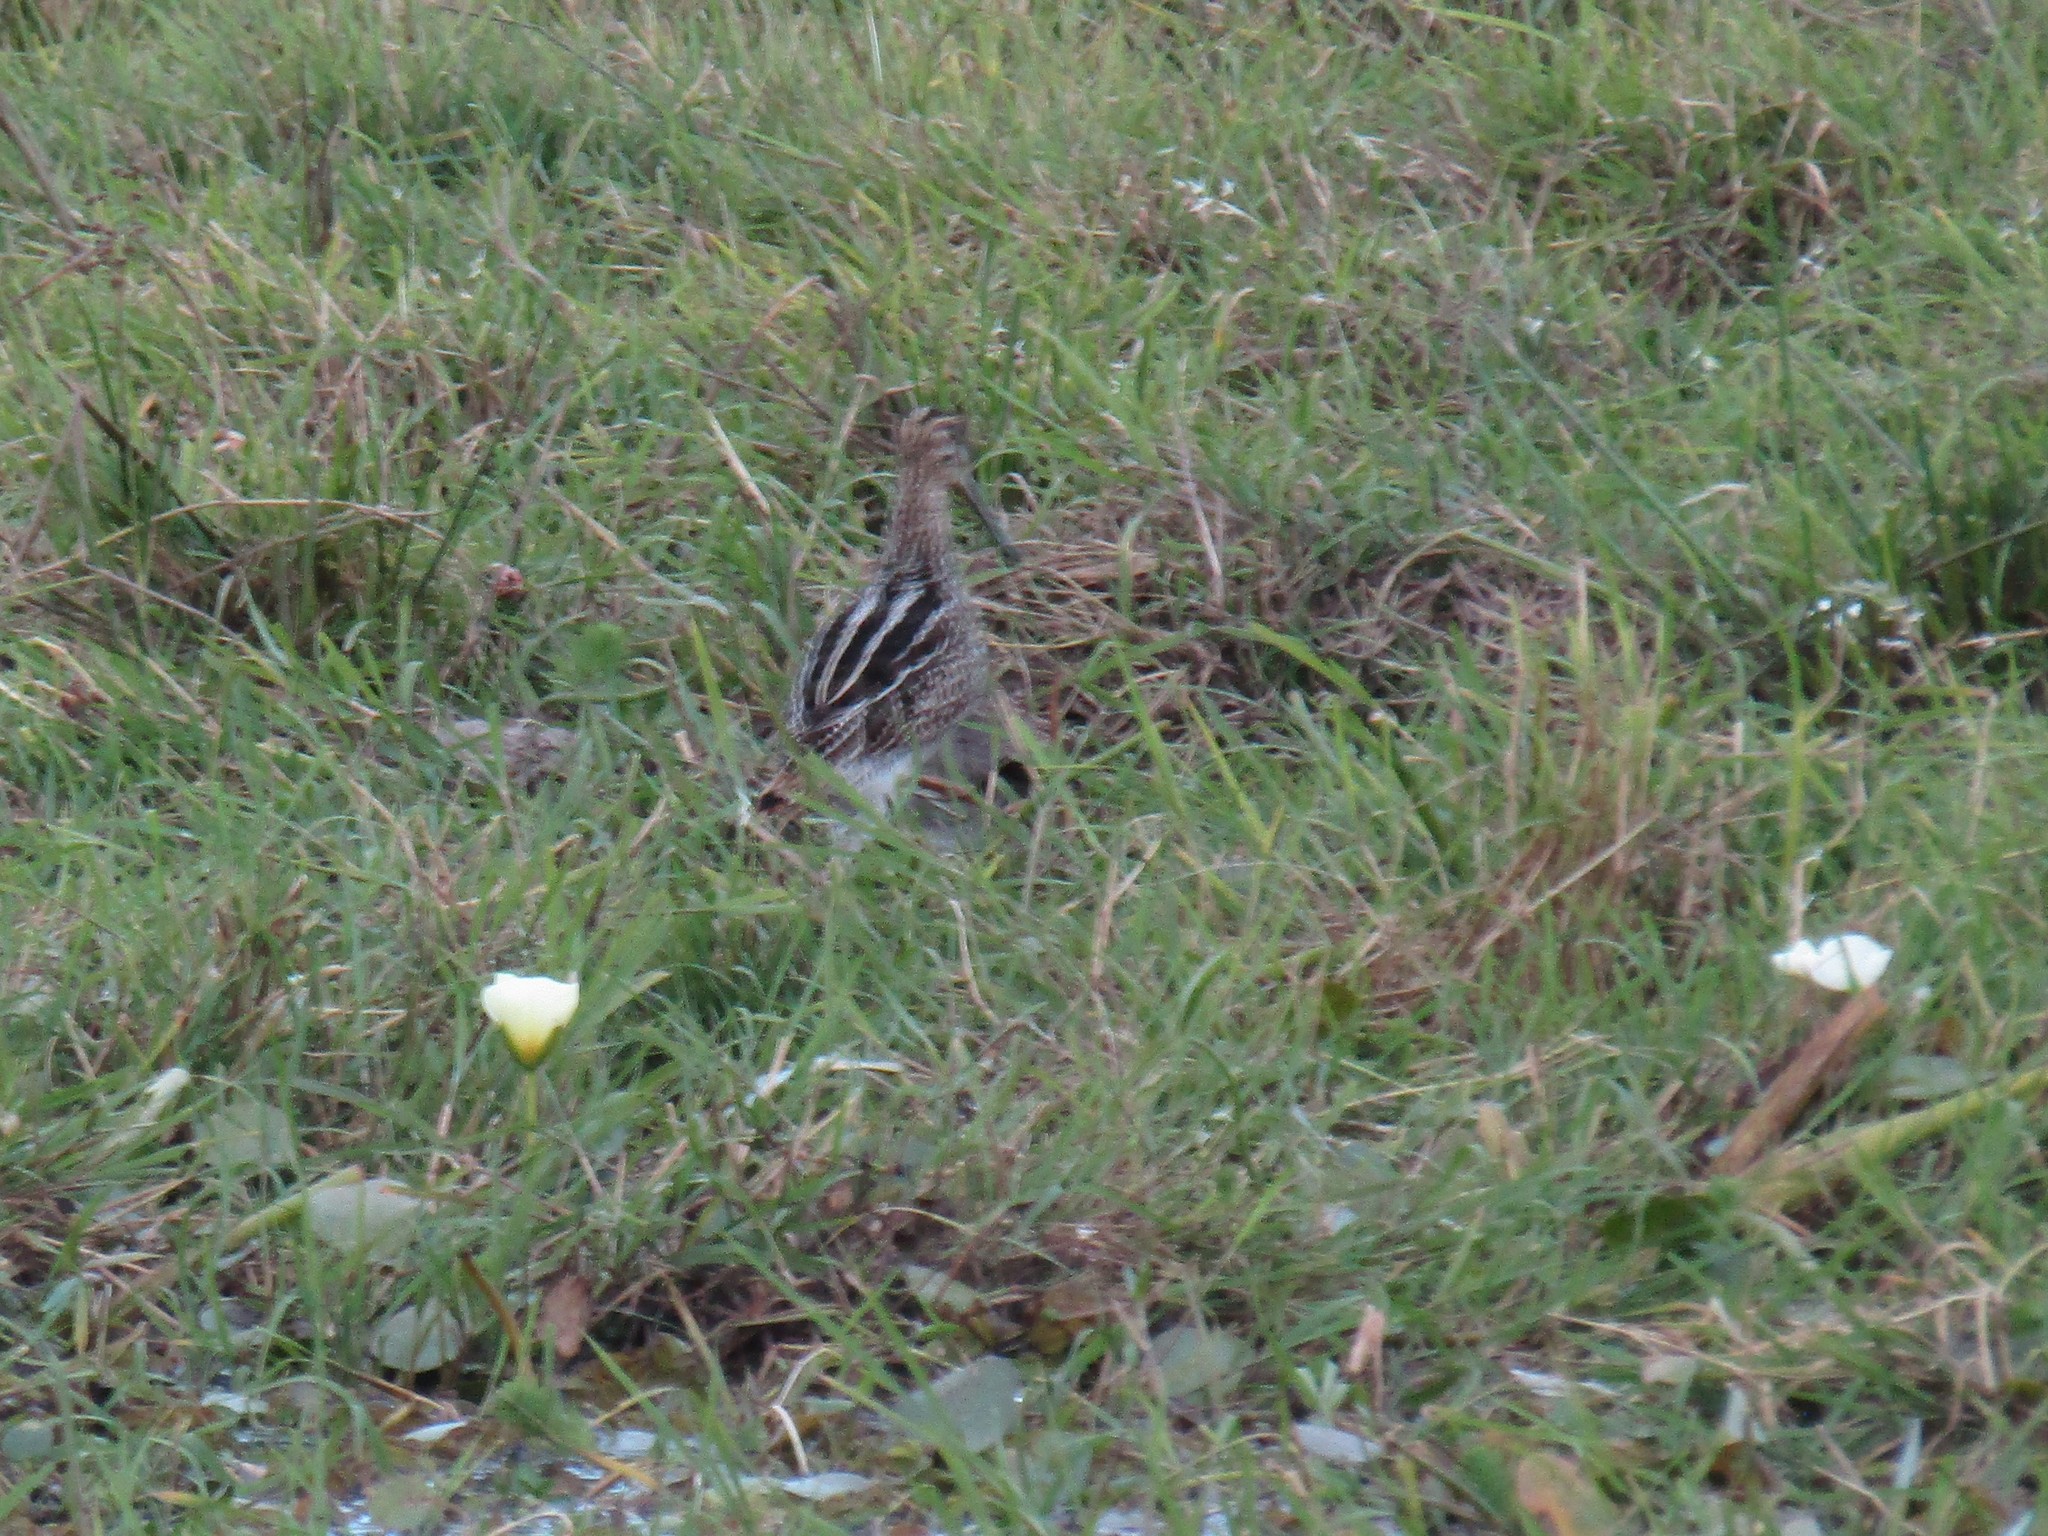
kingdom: Animalia
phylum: Chordata
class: Aves
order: Charadriiformes
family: Scolopacidae
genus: Gallinago
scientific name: Gallinago paraguaiae
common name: South american snipe
